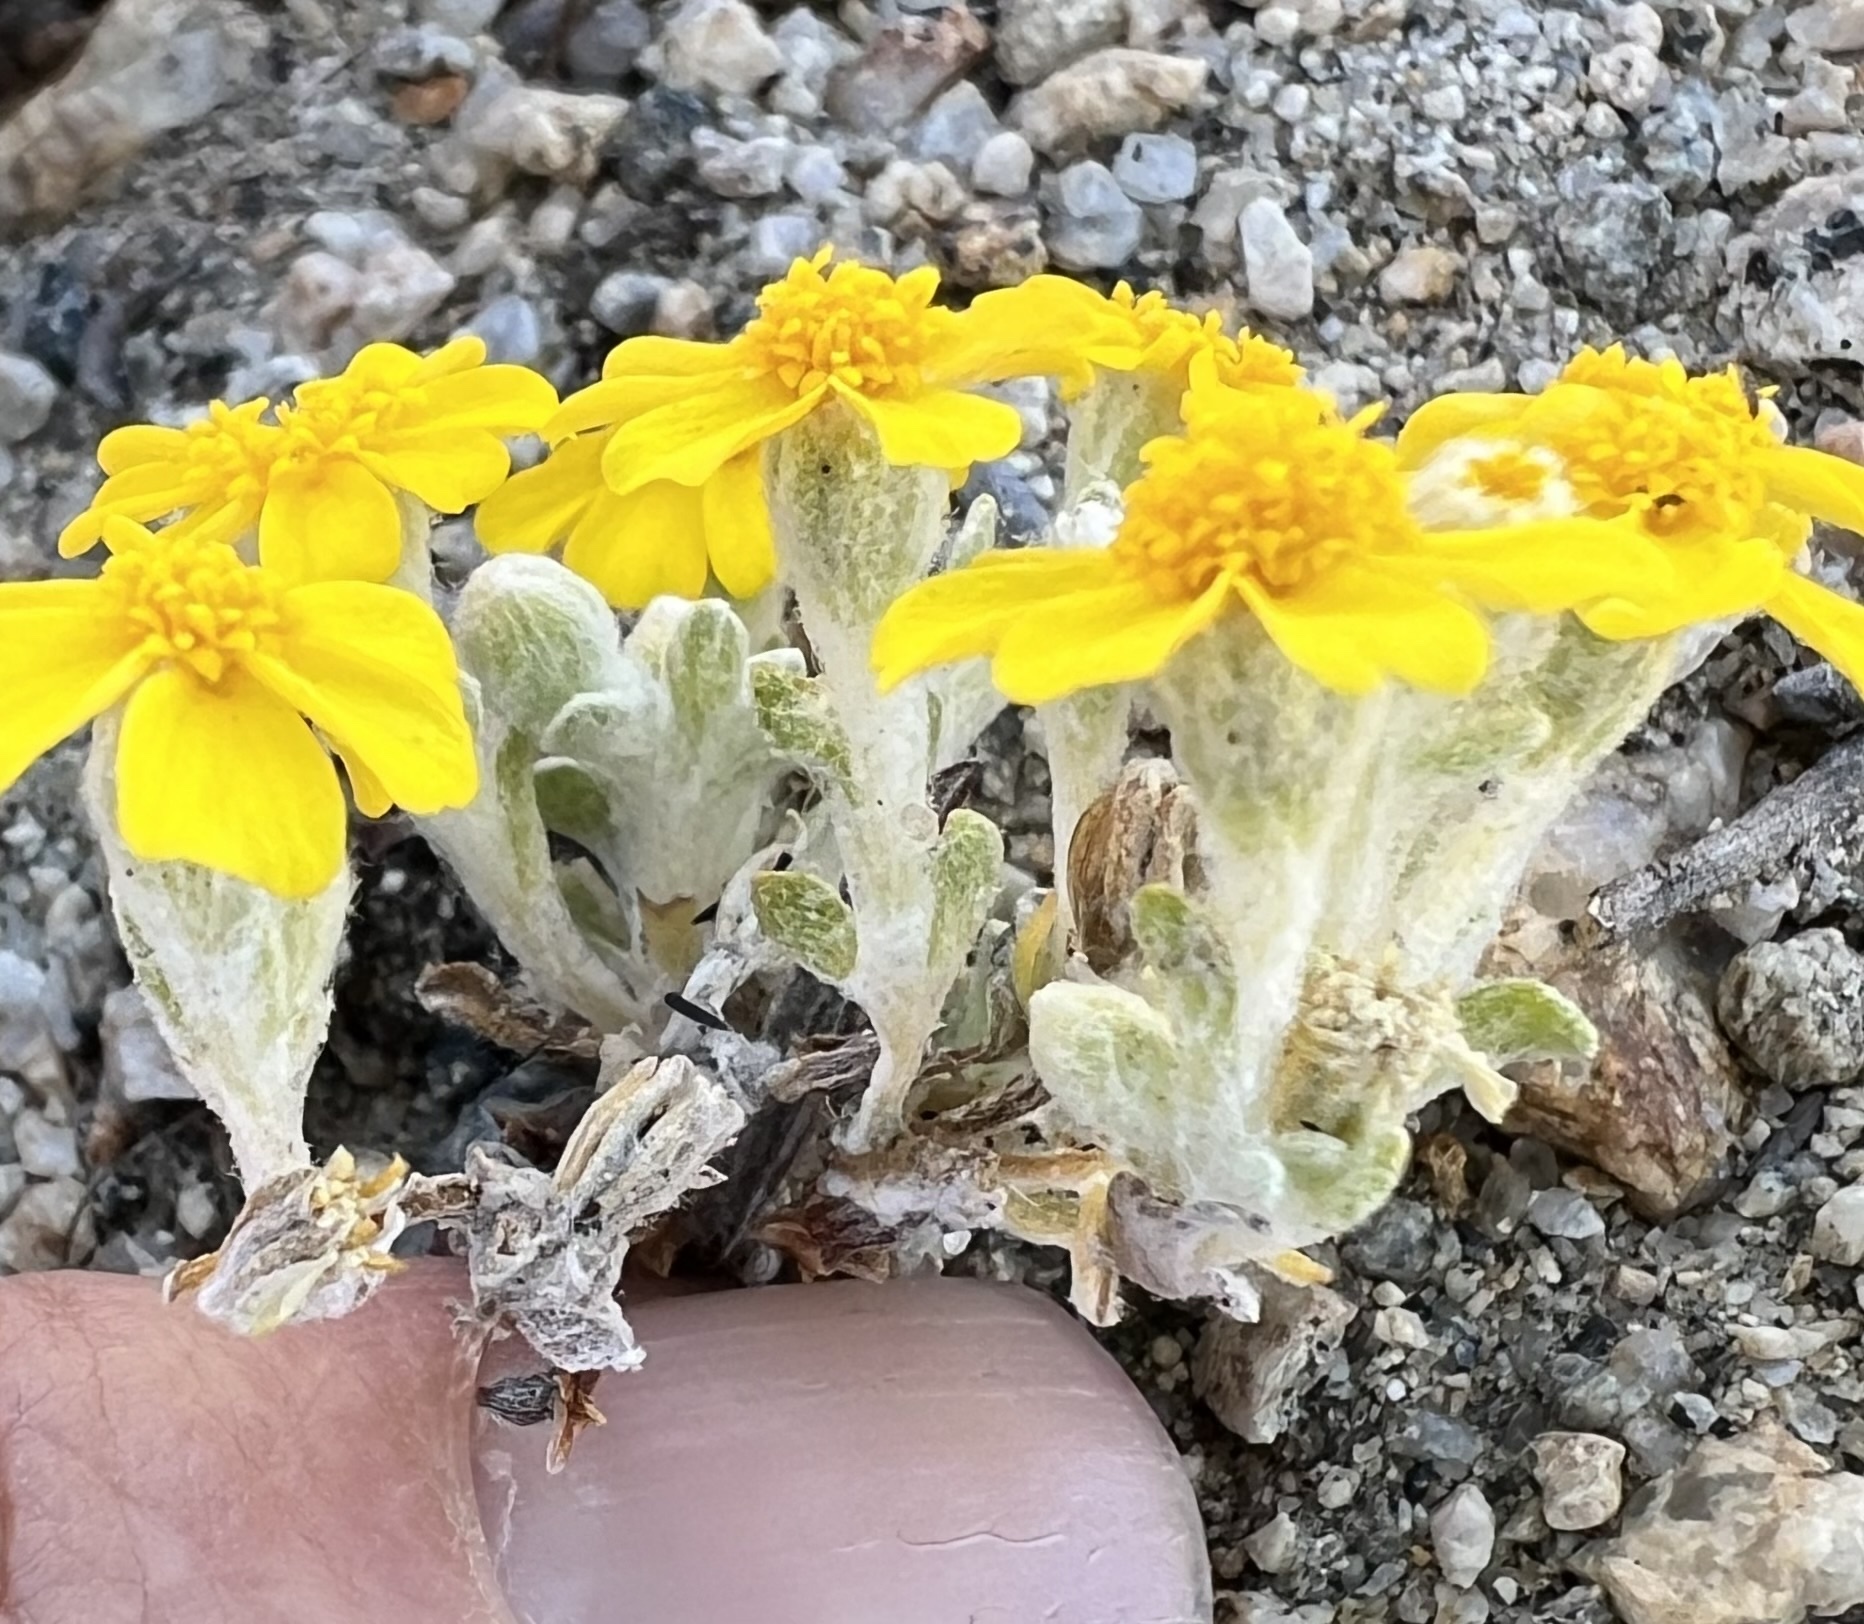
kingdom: Plantae
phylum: Tracheophyta
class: Magnoliopsida
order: Asterales
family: Asteraceae
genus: Eriophyllum
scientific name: Eriophyllum wallacei
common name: Wallace's woolly daisy
